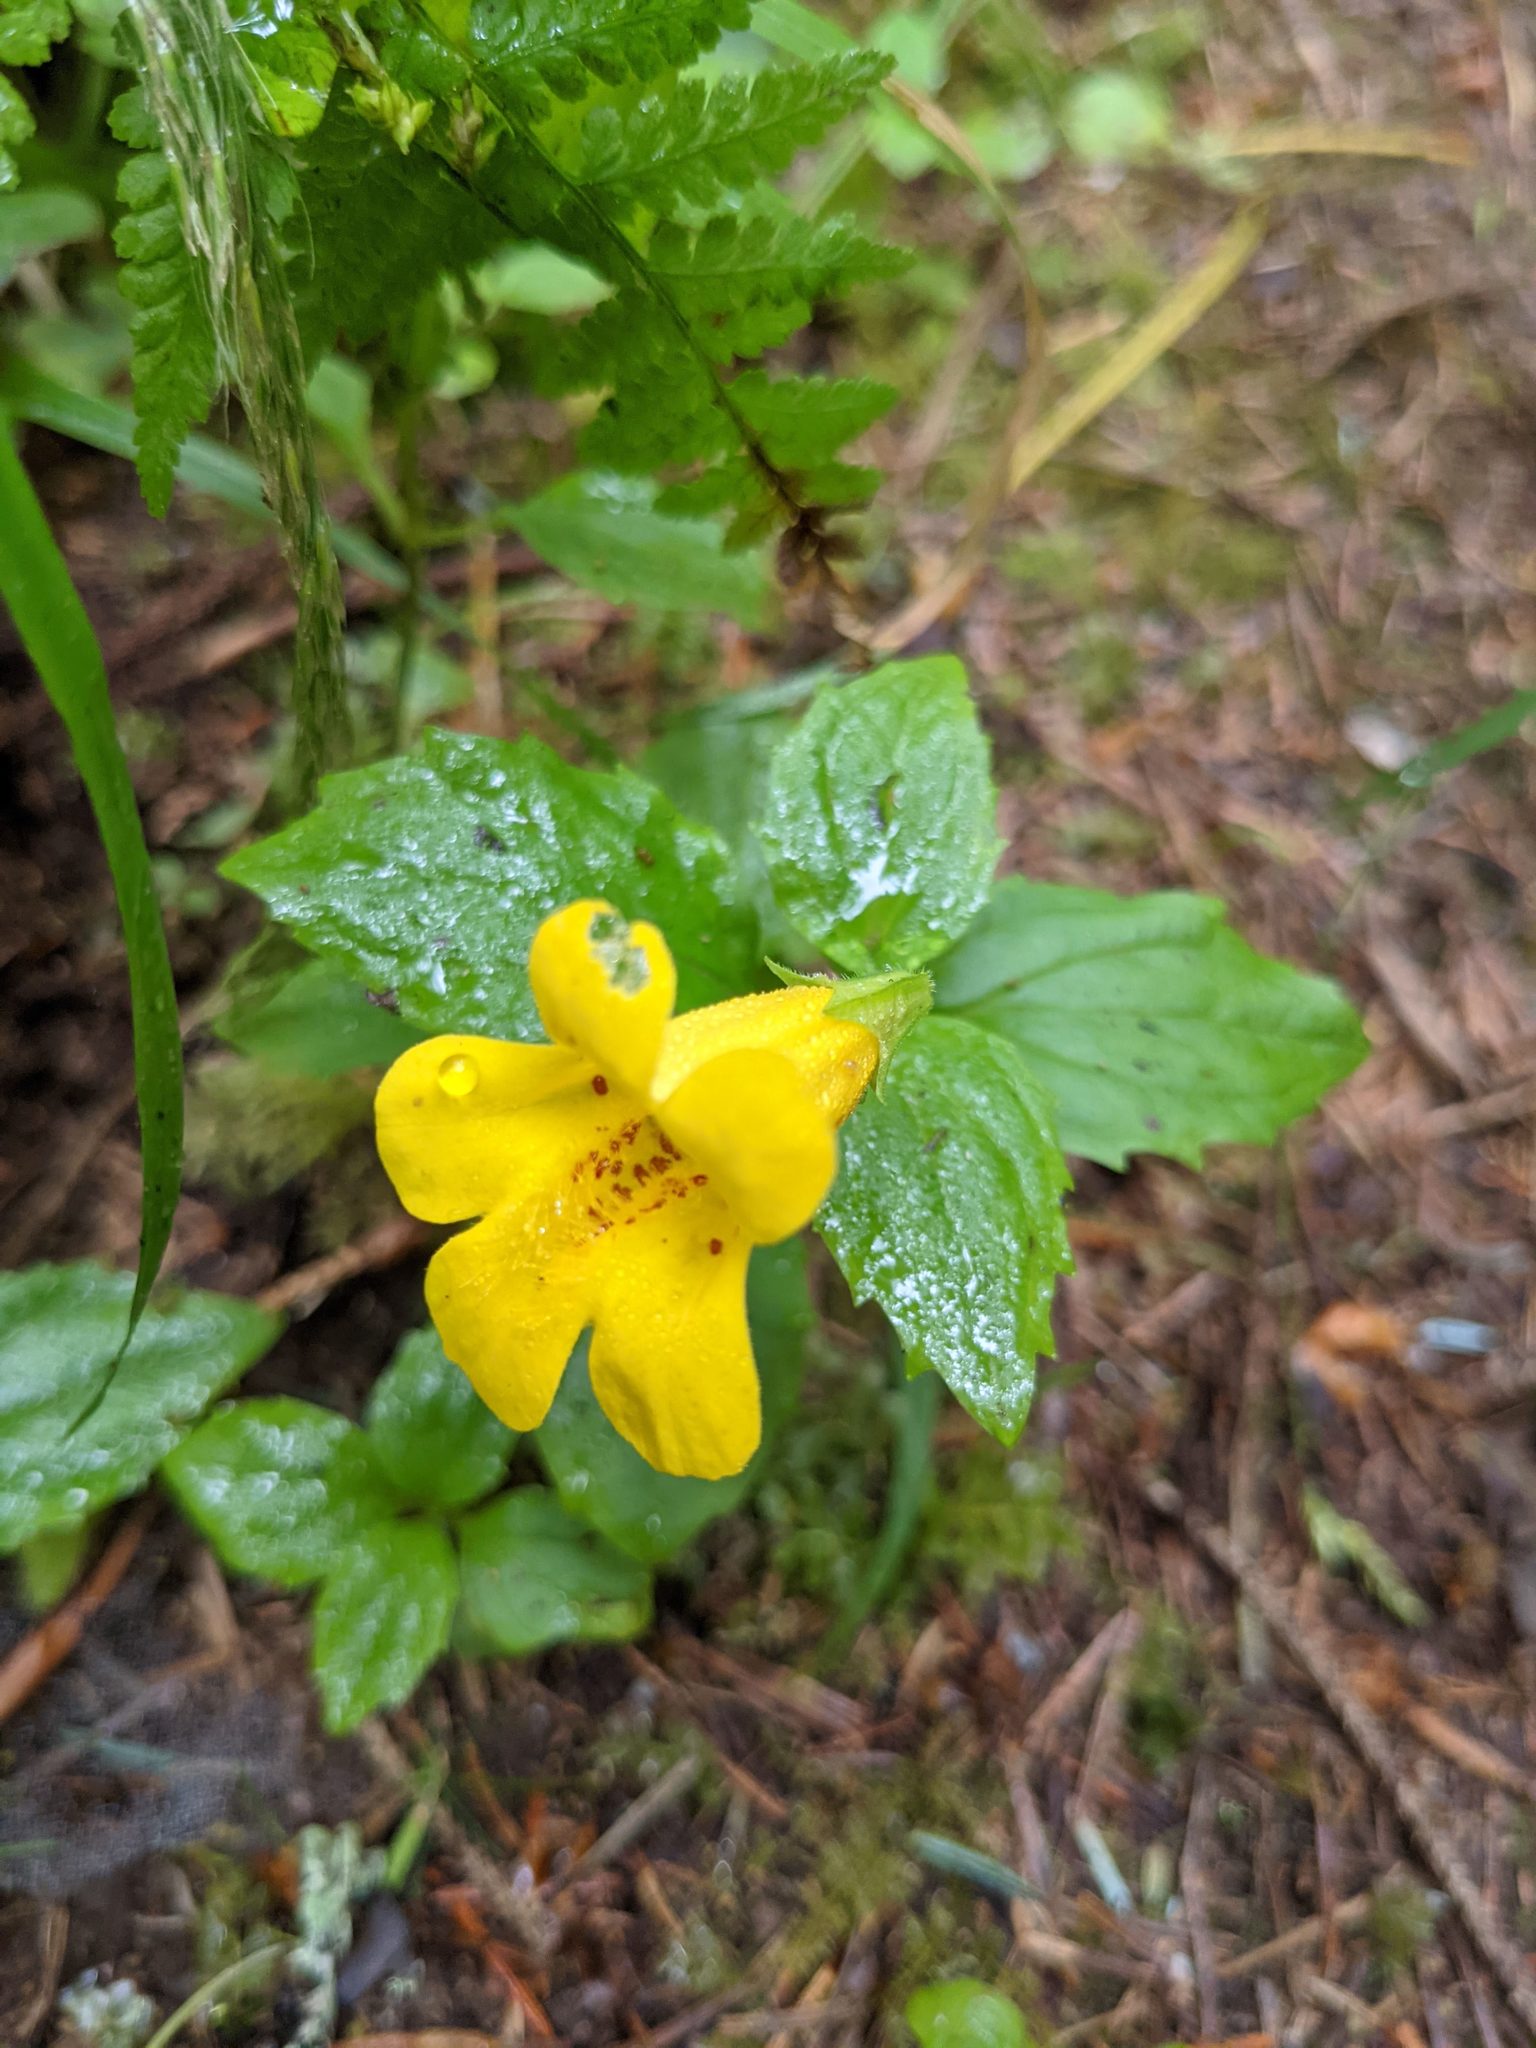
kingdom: Plantae
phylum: Tracheophyta
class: Magnoliopsida
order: Lamiales
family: Phrymaceae
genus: Erythranthe
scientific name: Erythranthe dentata
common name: Coastal monkeyflower
